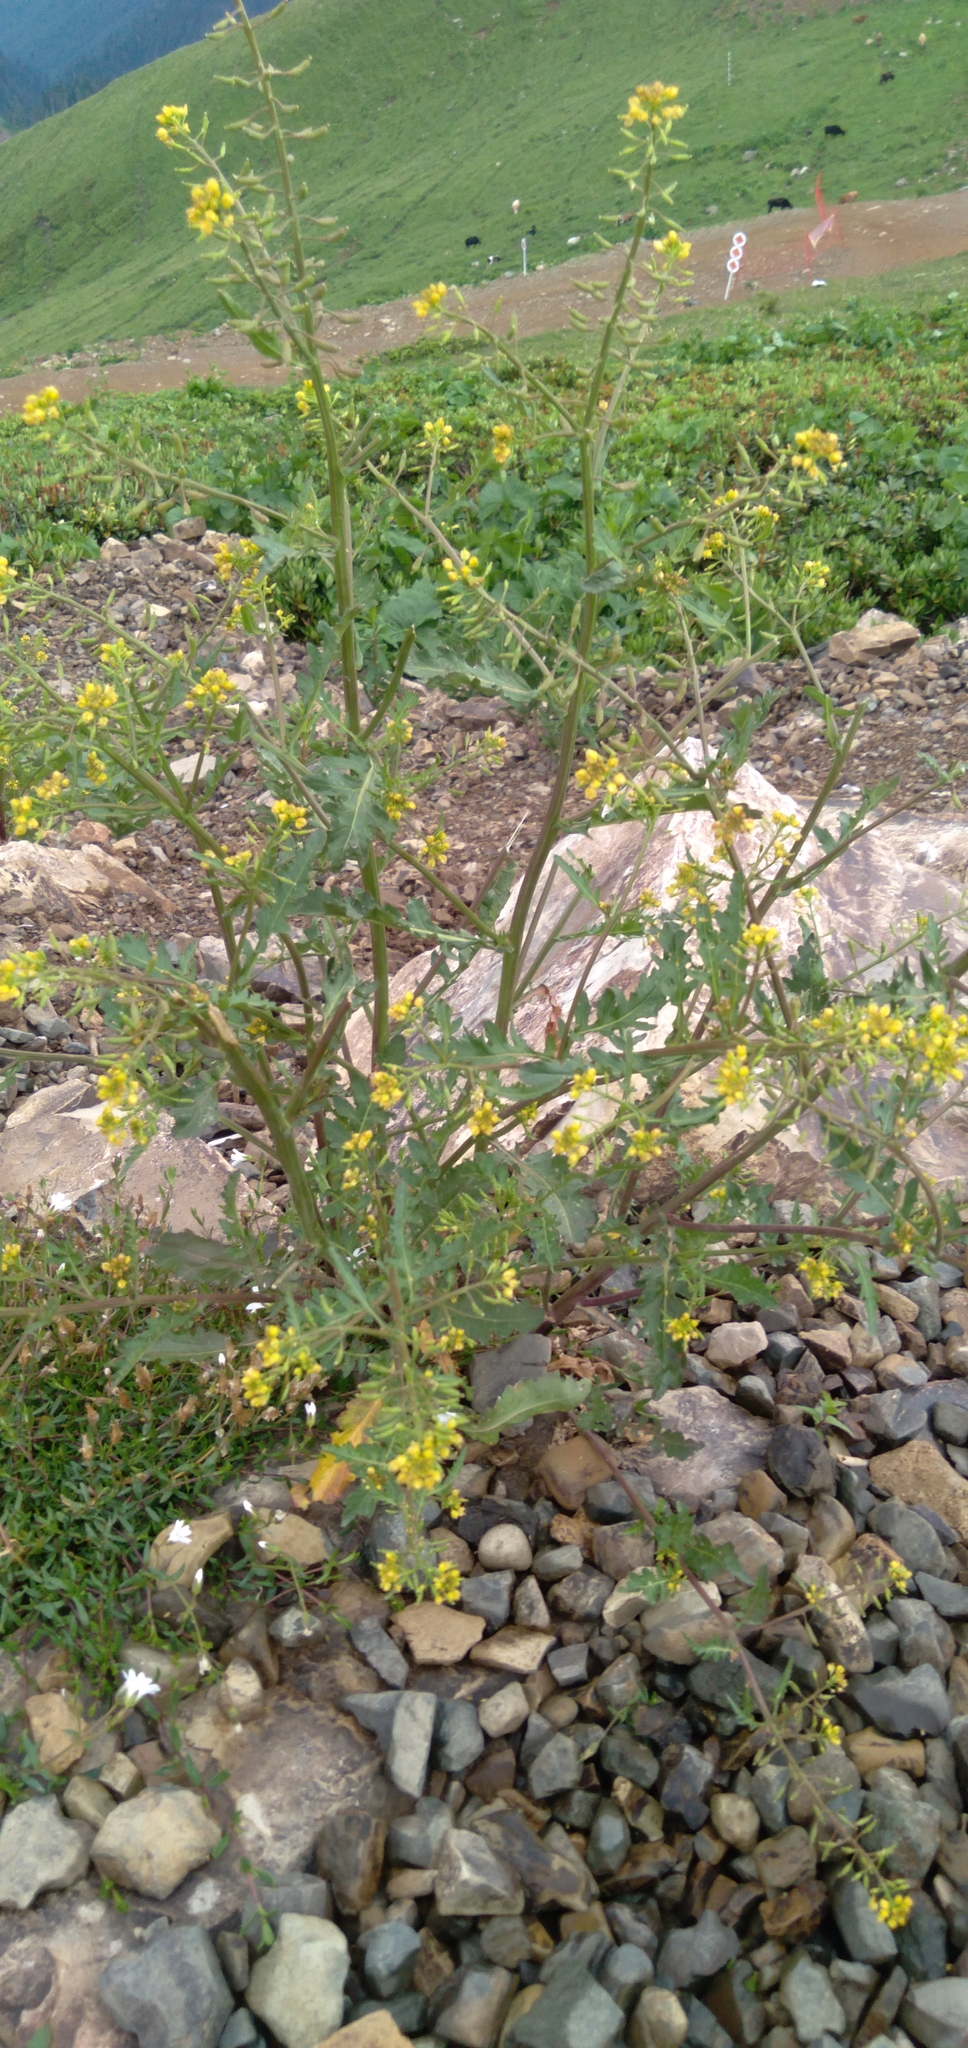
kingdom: Plantae
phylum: Tracheophyta
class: Magnoliopsida
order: Brassicales
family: Brassicaceae
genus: Rorippa
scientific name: Rorippa palustris
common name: Marsh yellow-cress
